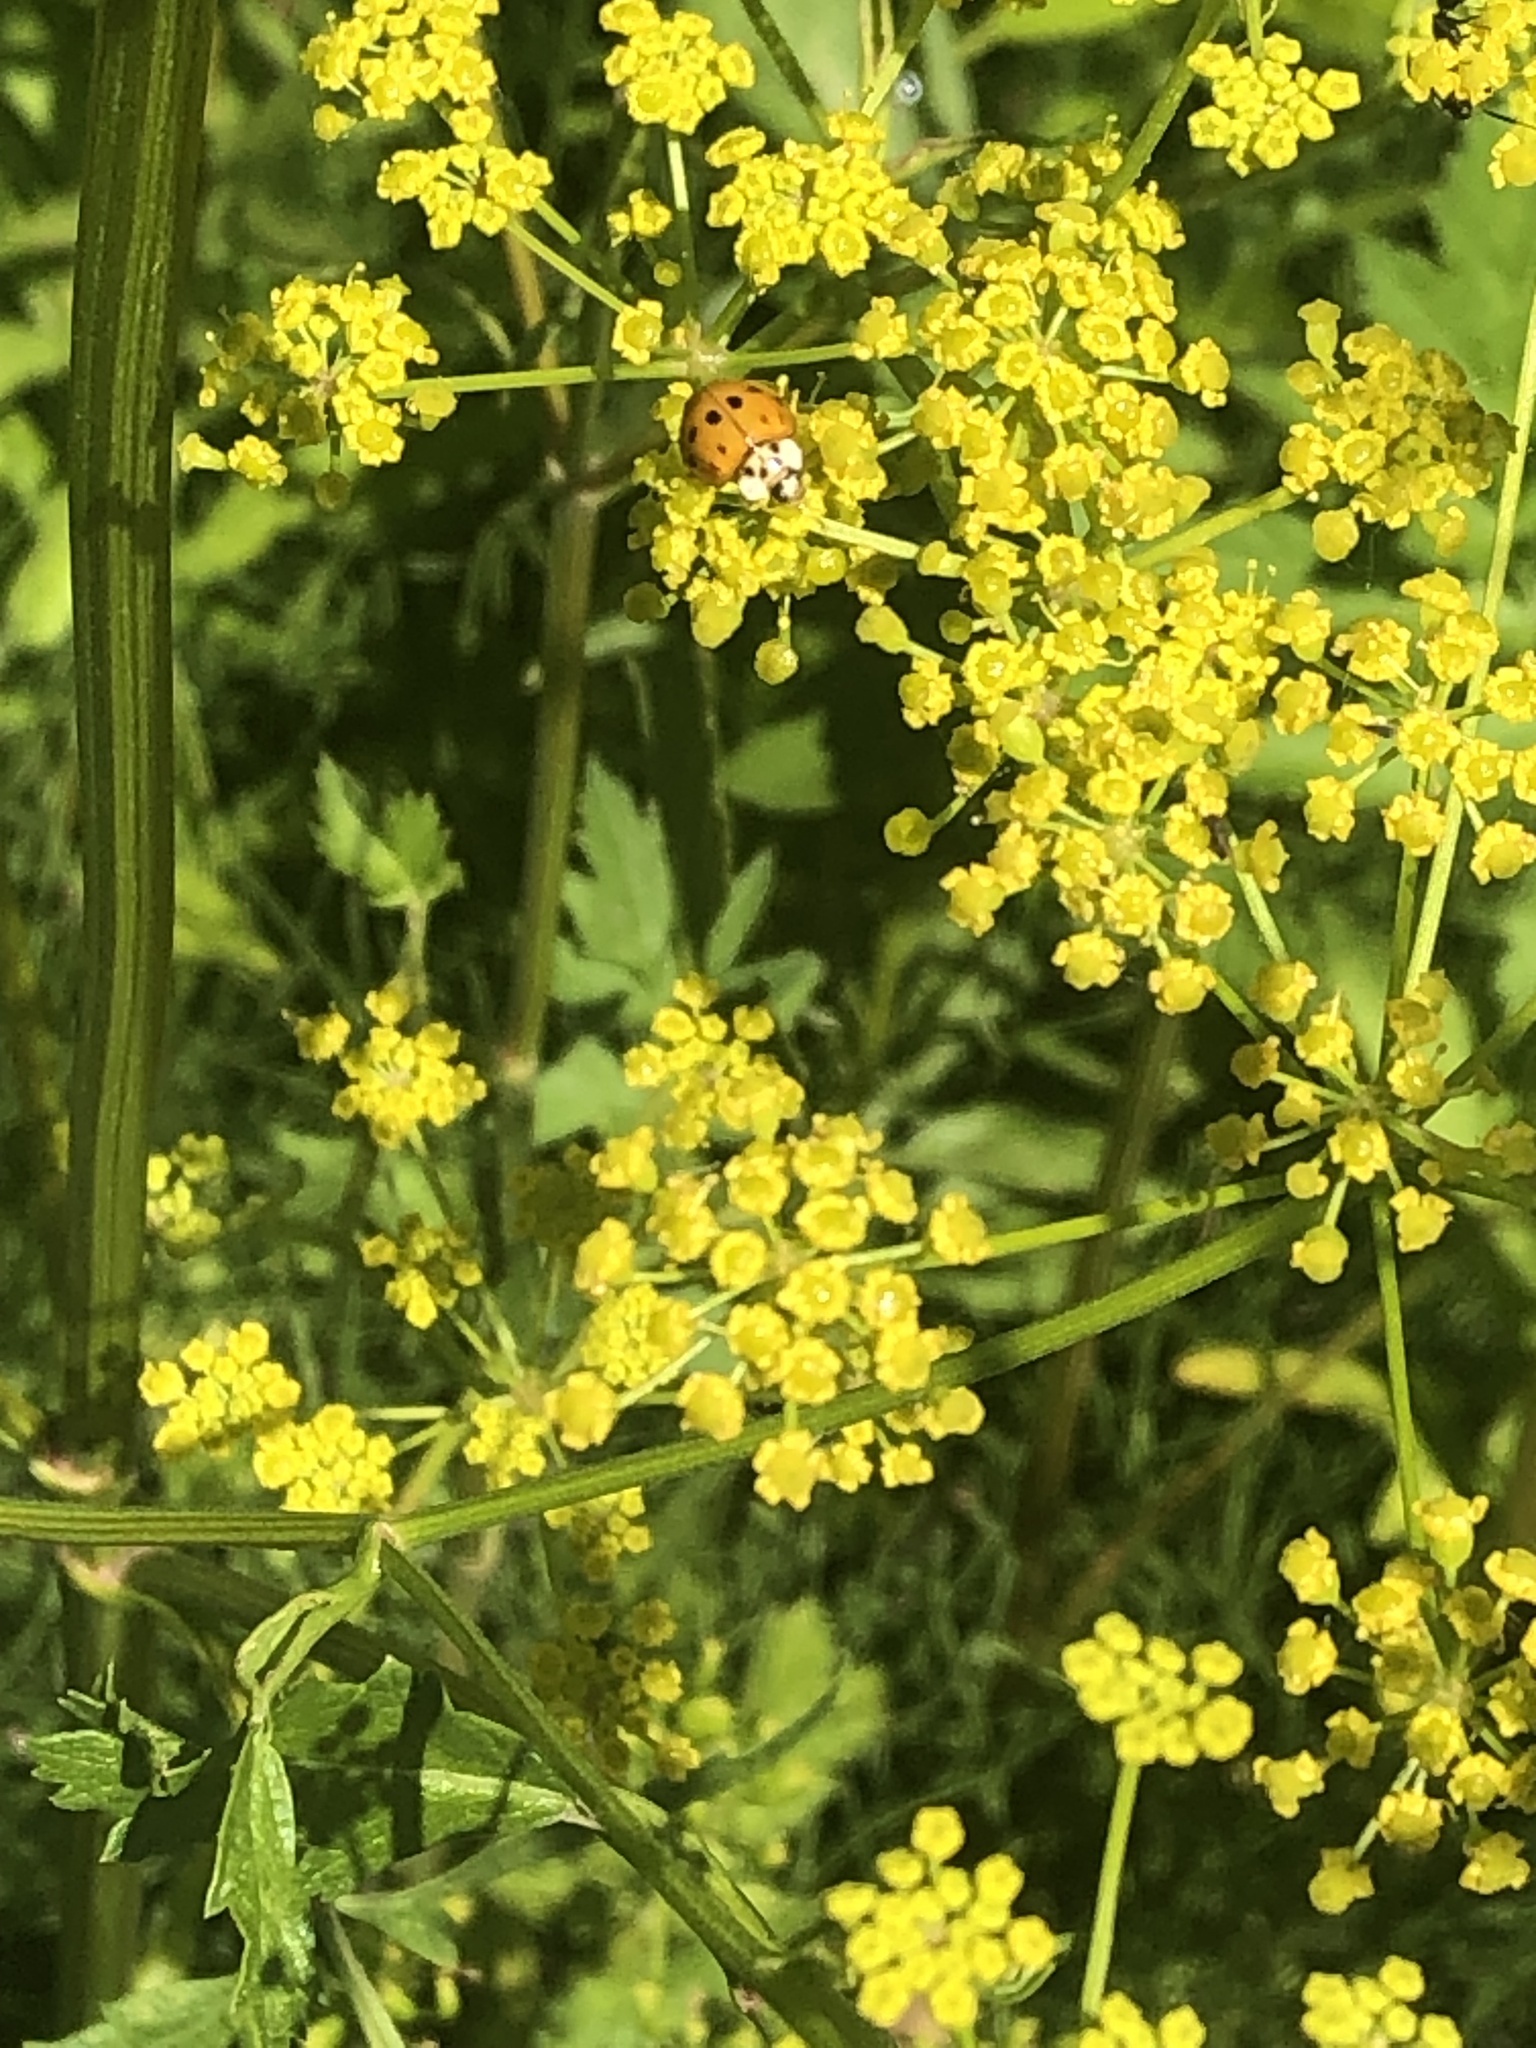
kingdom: Animalia
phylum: Arthropoda
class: Insecta
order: Coleoptera
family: Coccinellidae
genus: Harmonia
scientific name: Harmonia axyridis
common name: Harlequin ladybird
